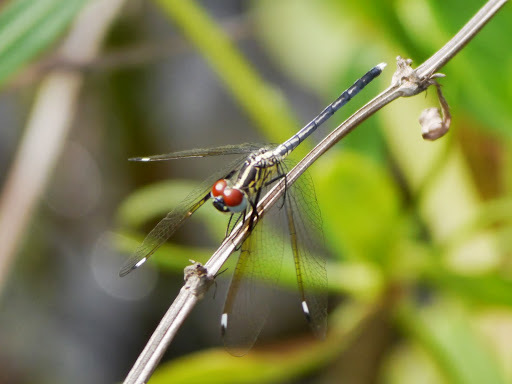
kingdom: Animalia
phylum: Arthropoda
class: Insecta
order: Odonata
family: Libellulidae
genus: Hemistigma
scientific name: Hemistigma albipunctum
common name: African pied-spot
